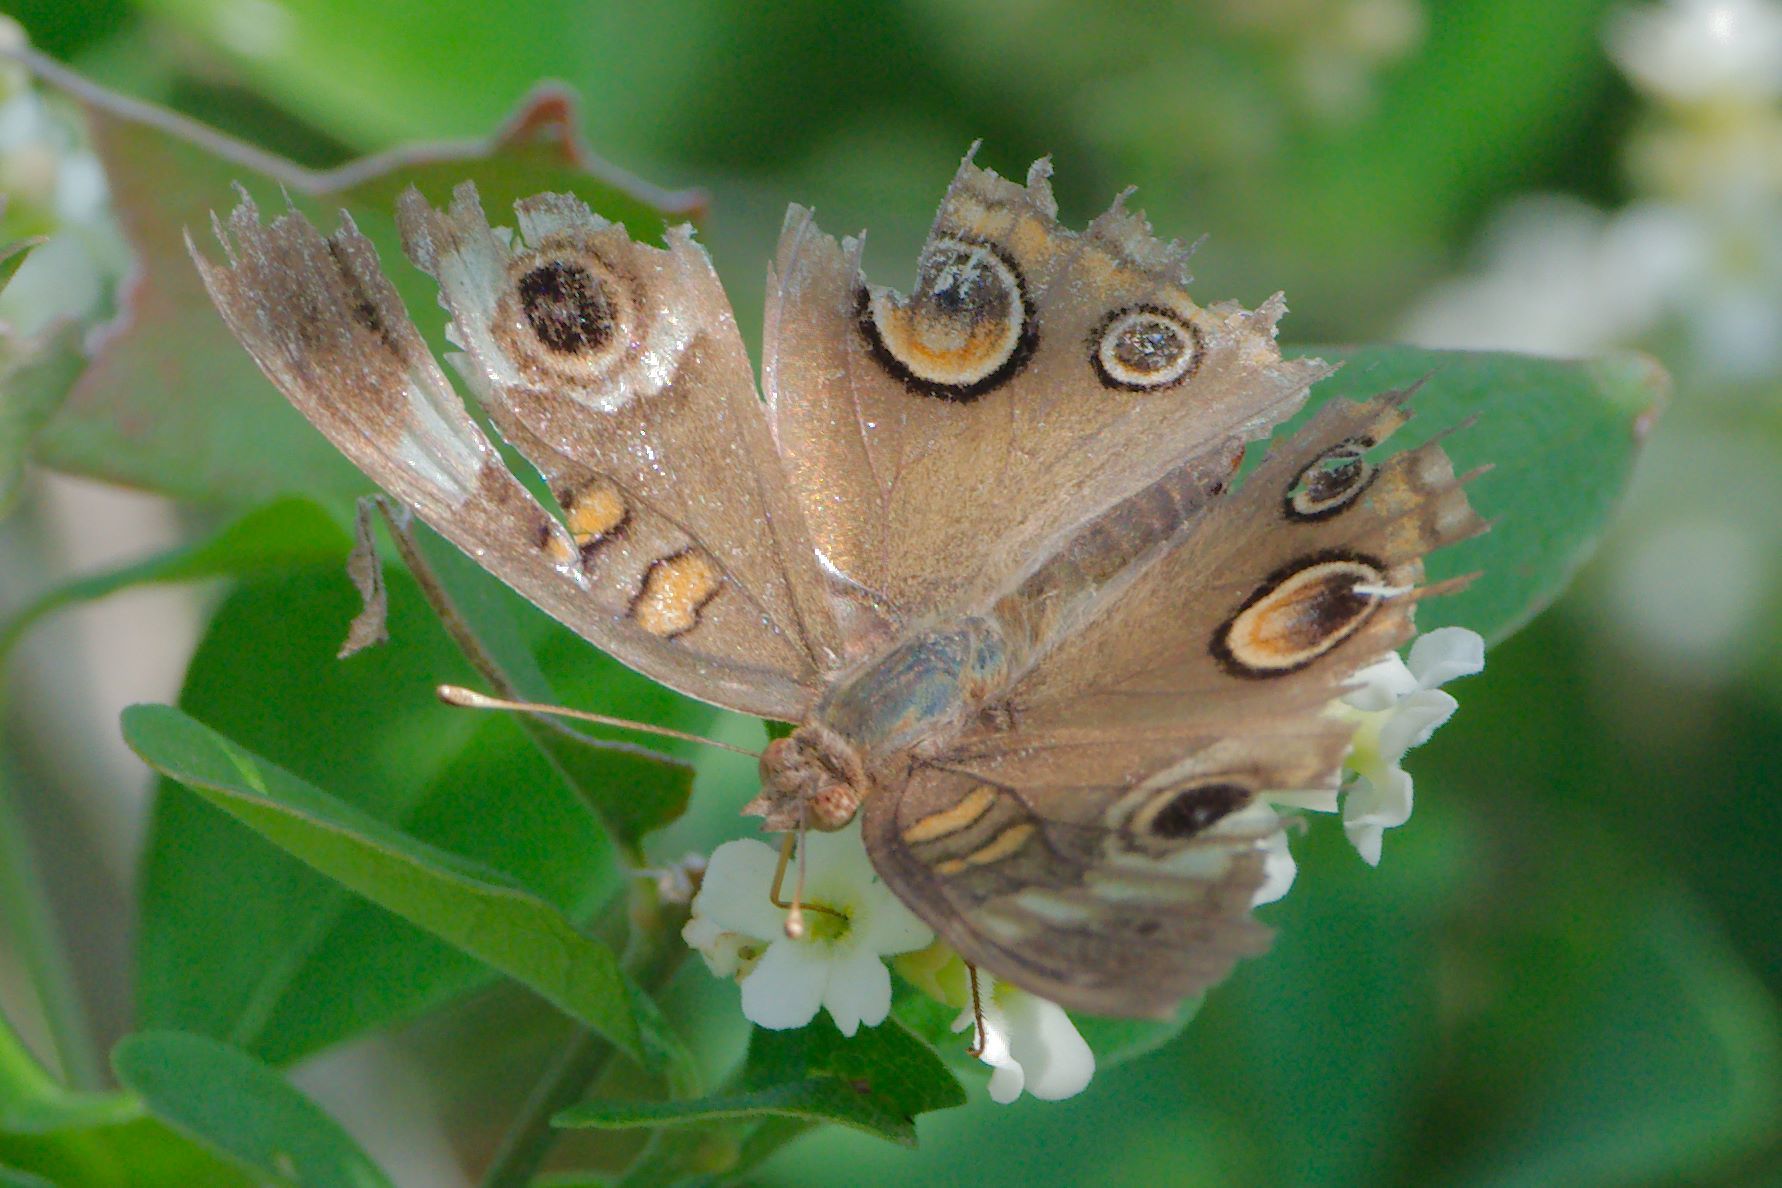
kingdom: Animalia
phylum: Arthropoda
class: Insecta
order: Lepidoptera
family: Nymphalidae
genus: Junonia
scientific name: Junonia coenia
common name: Common buckeye
